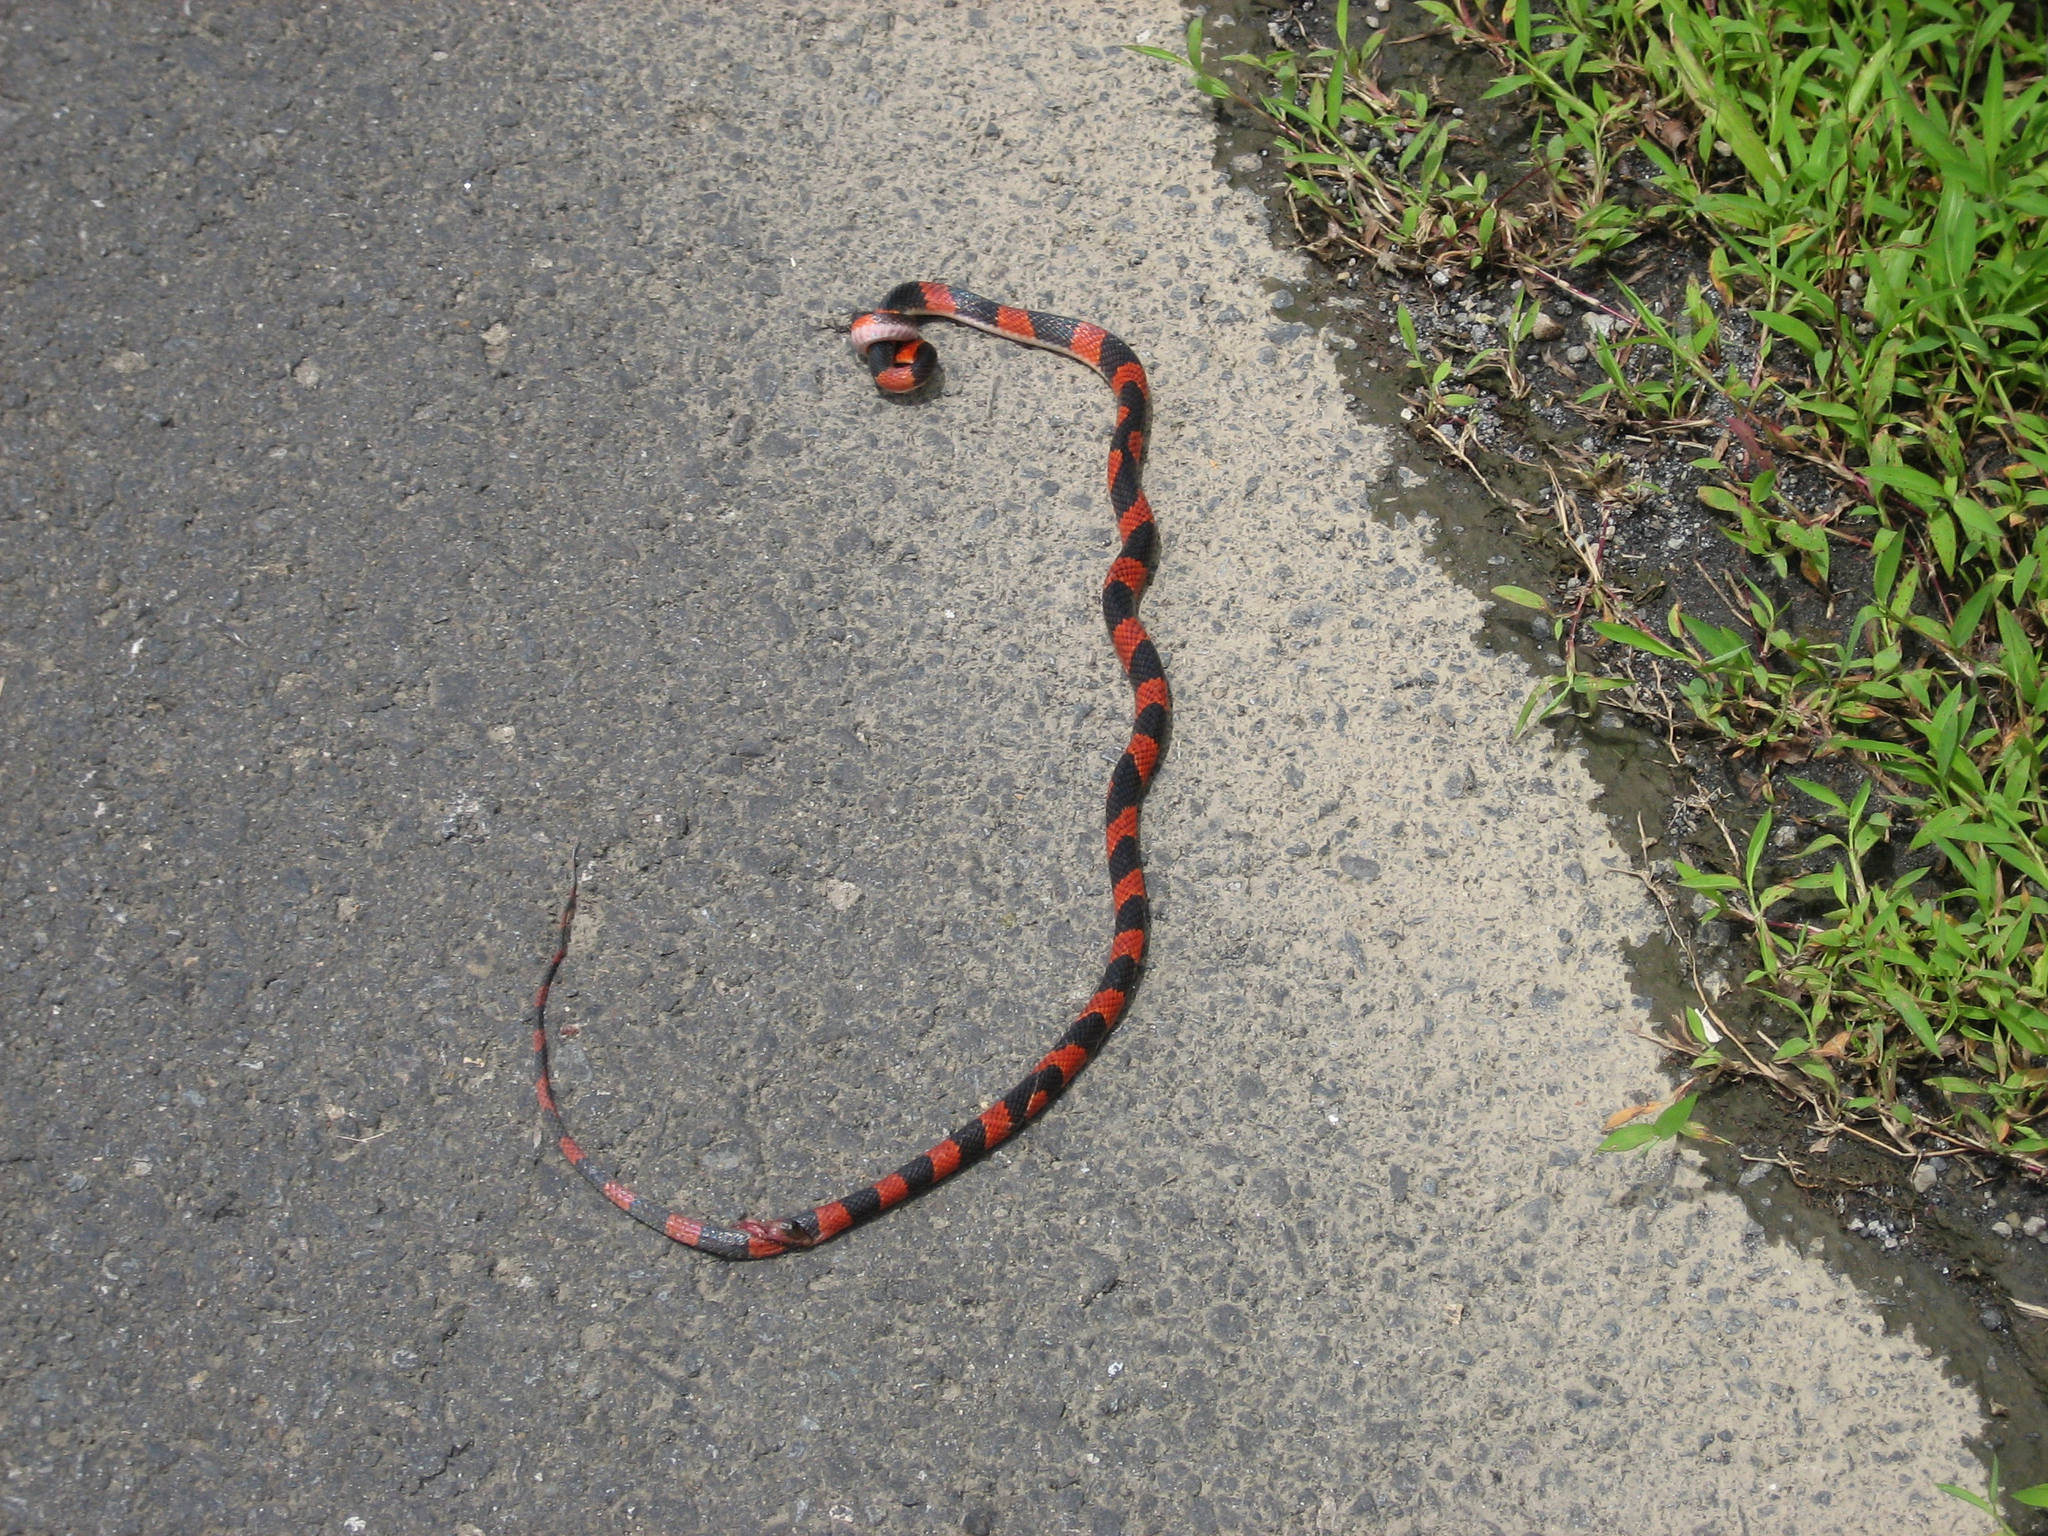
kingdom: Animalia
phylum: Chordata
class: Squamata
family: Colubridae
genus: Oxyrhopus
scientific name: Oxyrhopus petolarius
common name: Forest flame snake
